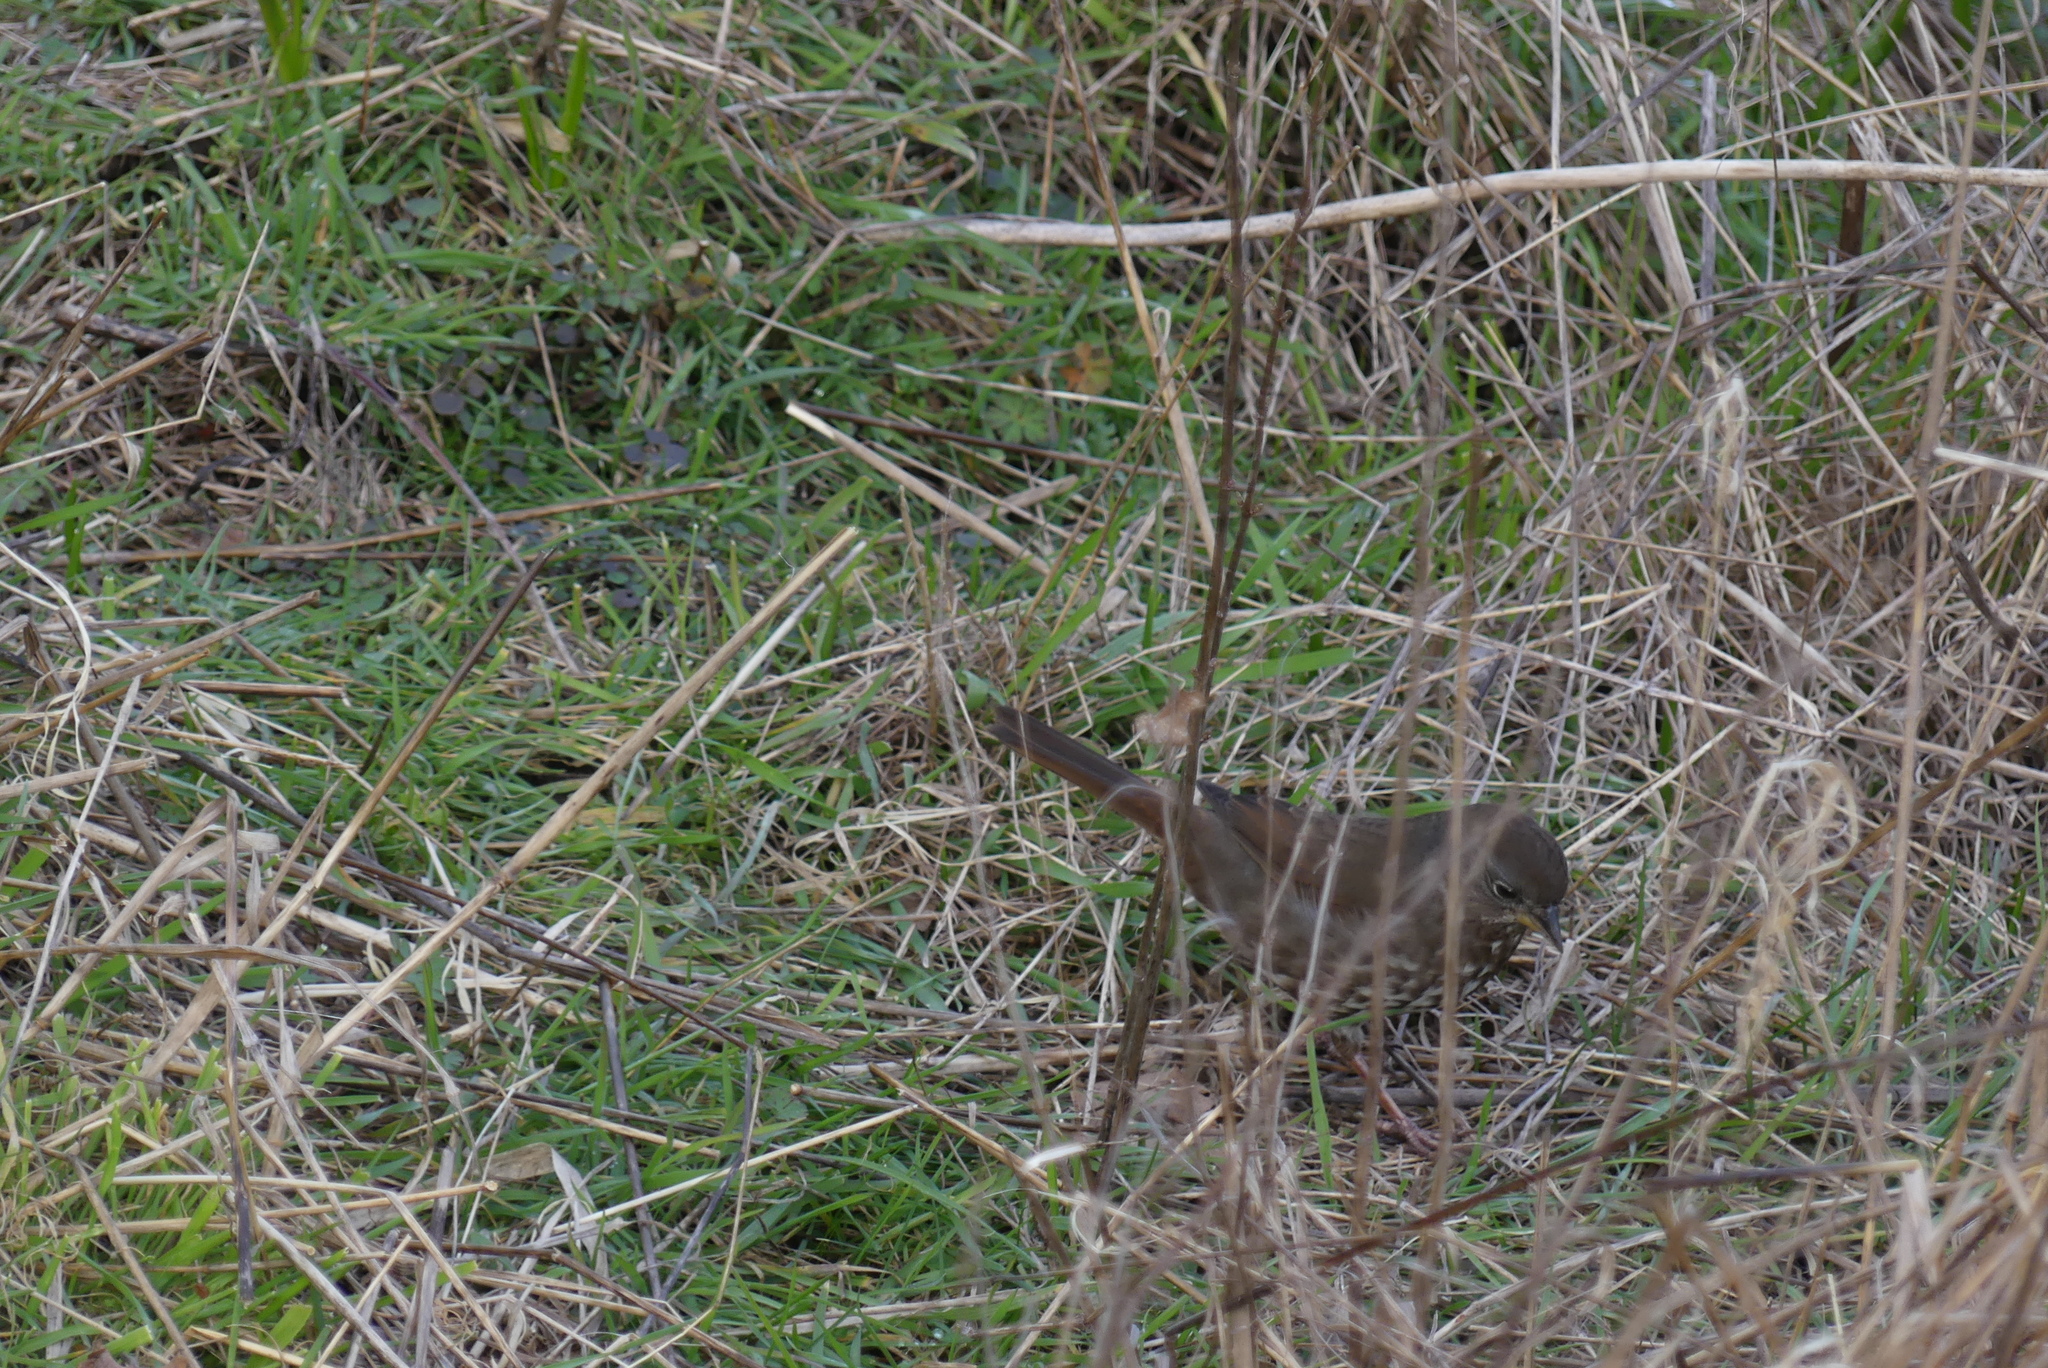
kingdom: Animalia
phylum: Chordata
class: Aves
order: Passeriformes
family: Passerellidae
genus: Passerella
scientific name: Passerella iliaca
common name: Fox sparrow
